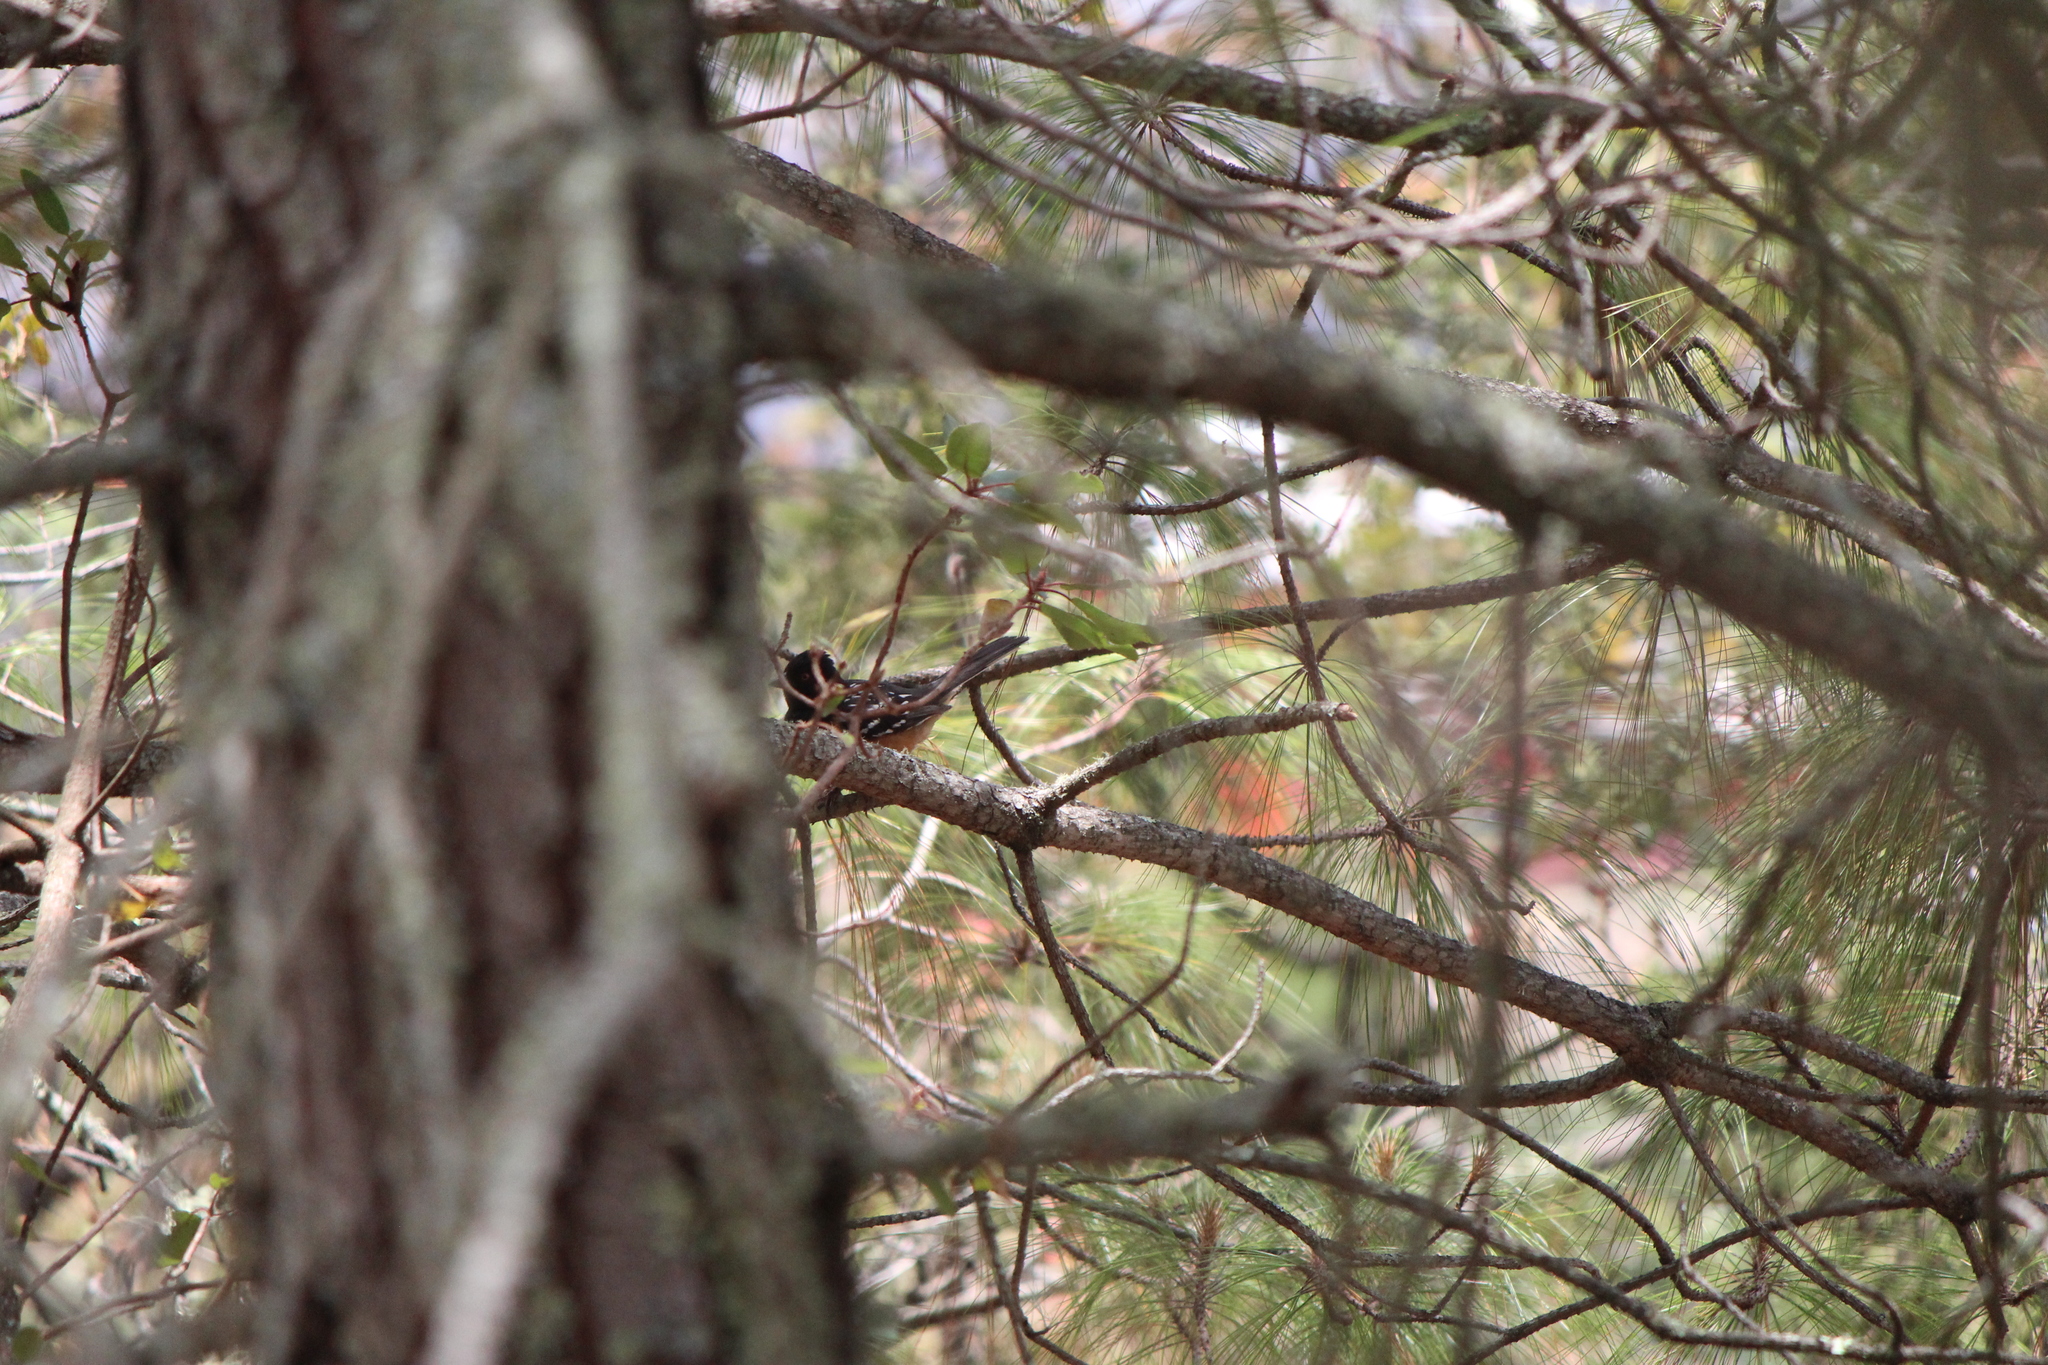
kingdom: Animalia
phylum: Chordata
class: Aves
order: Passeriformes
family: Passerellidae
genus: Pipilo
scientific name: Pipilo maculatus
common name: Spotted towhee
